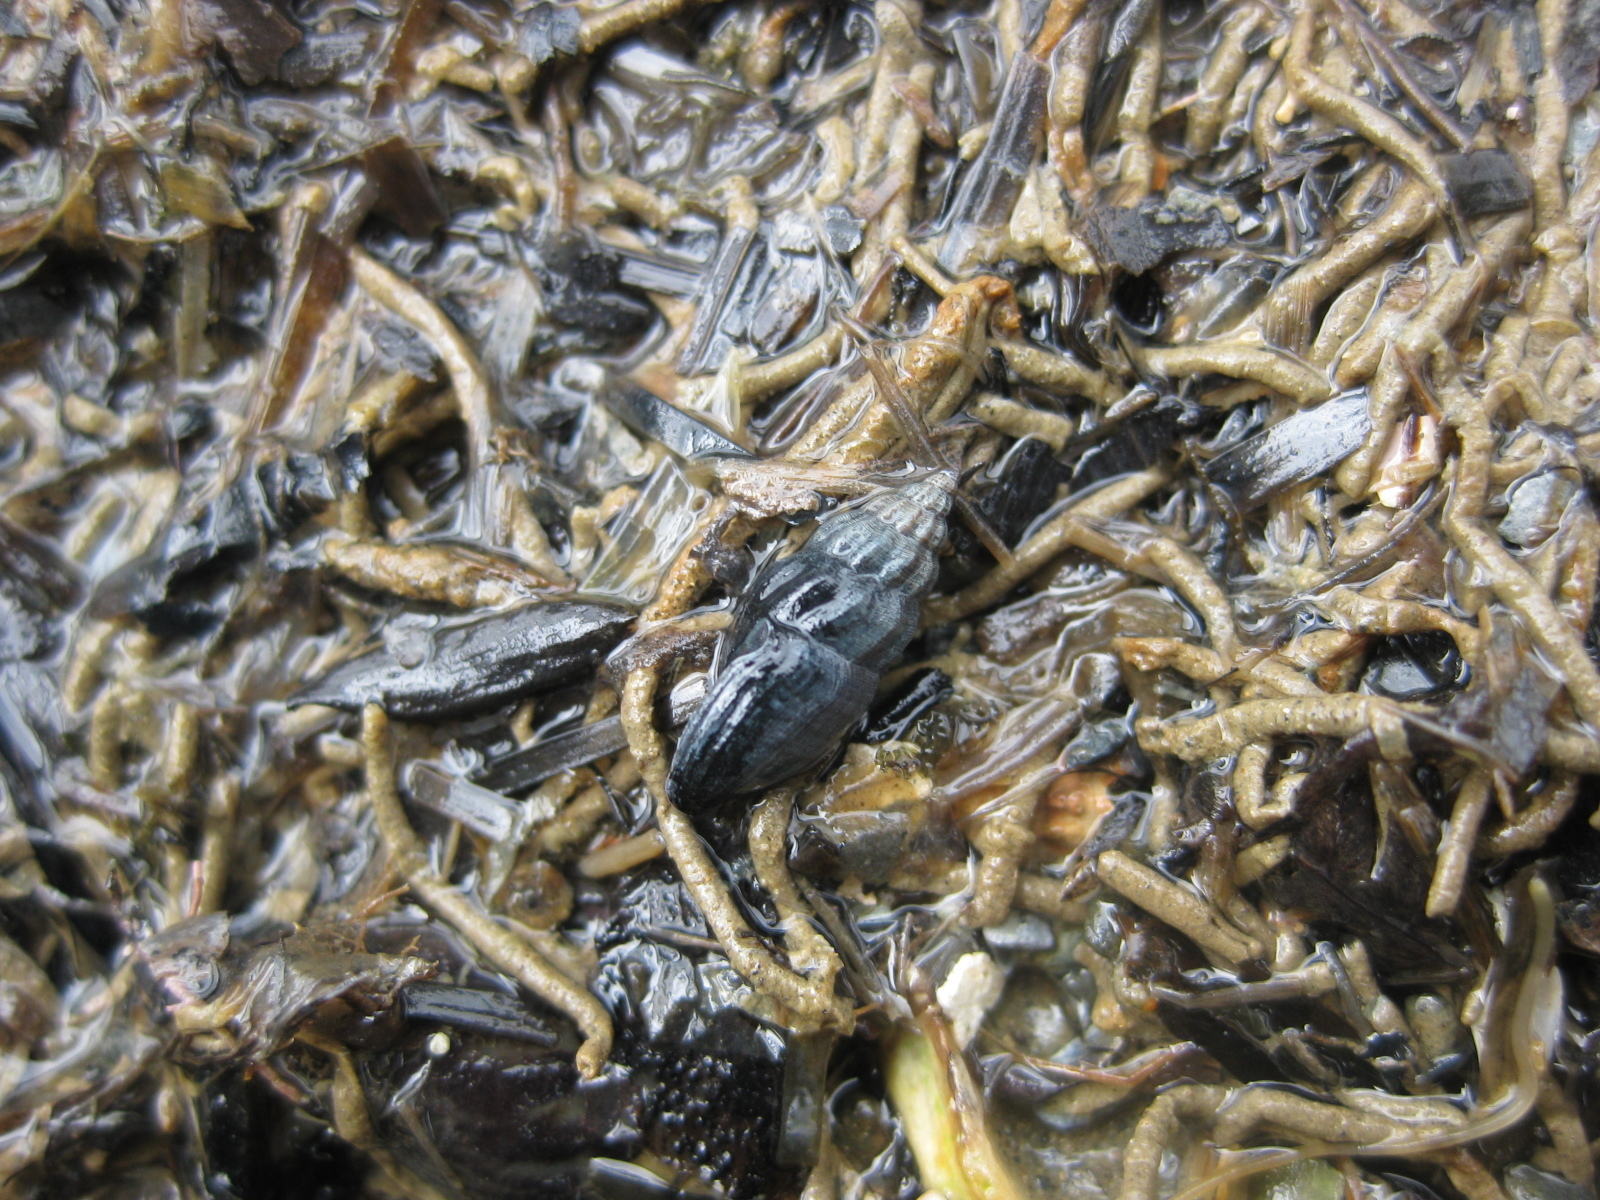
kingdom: Animalia
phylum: Mollusca
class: Gastropoda
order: Neogastropoda
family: Mangeliidae
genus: Neoguraleus
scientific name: Neoguraleus lyallensis
